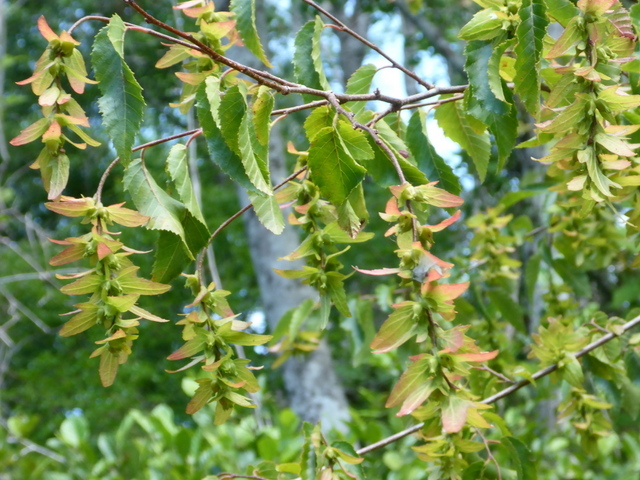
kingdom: Plantae
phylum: Tracheophyta
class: Magnoliopsida
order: Fagales
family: Betulaceae
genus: Carpinus
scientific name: Carpinus caroliniana
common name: American hornbeam
